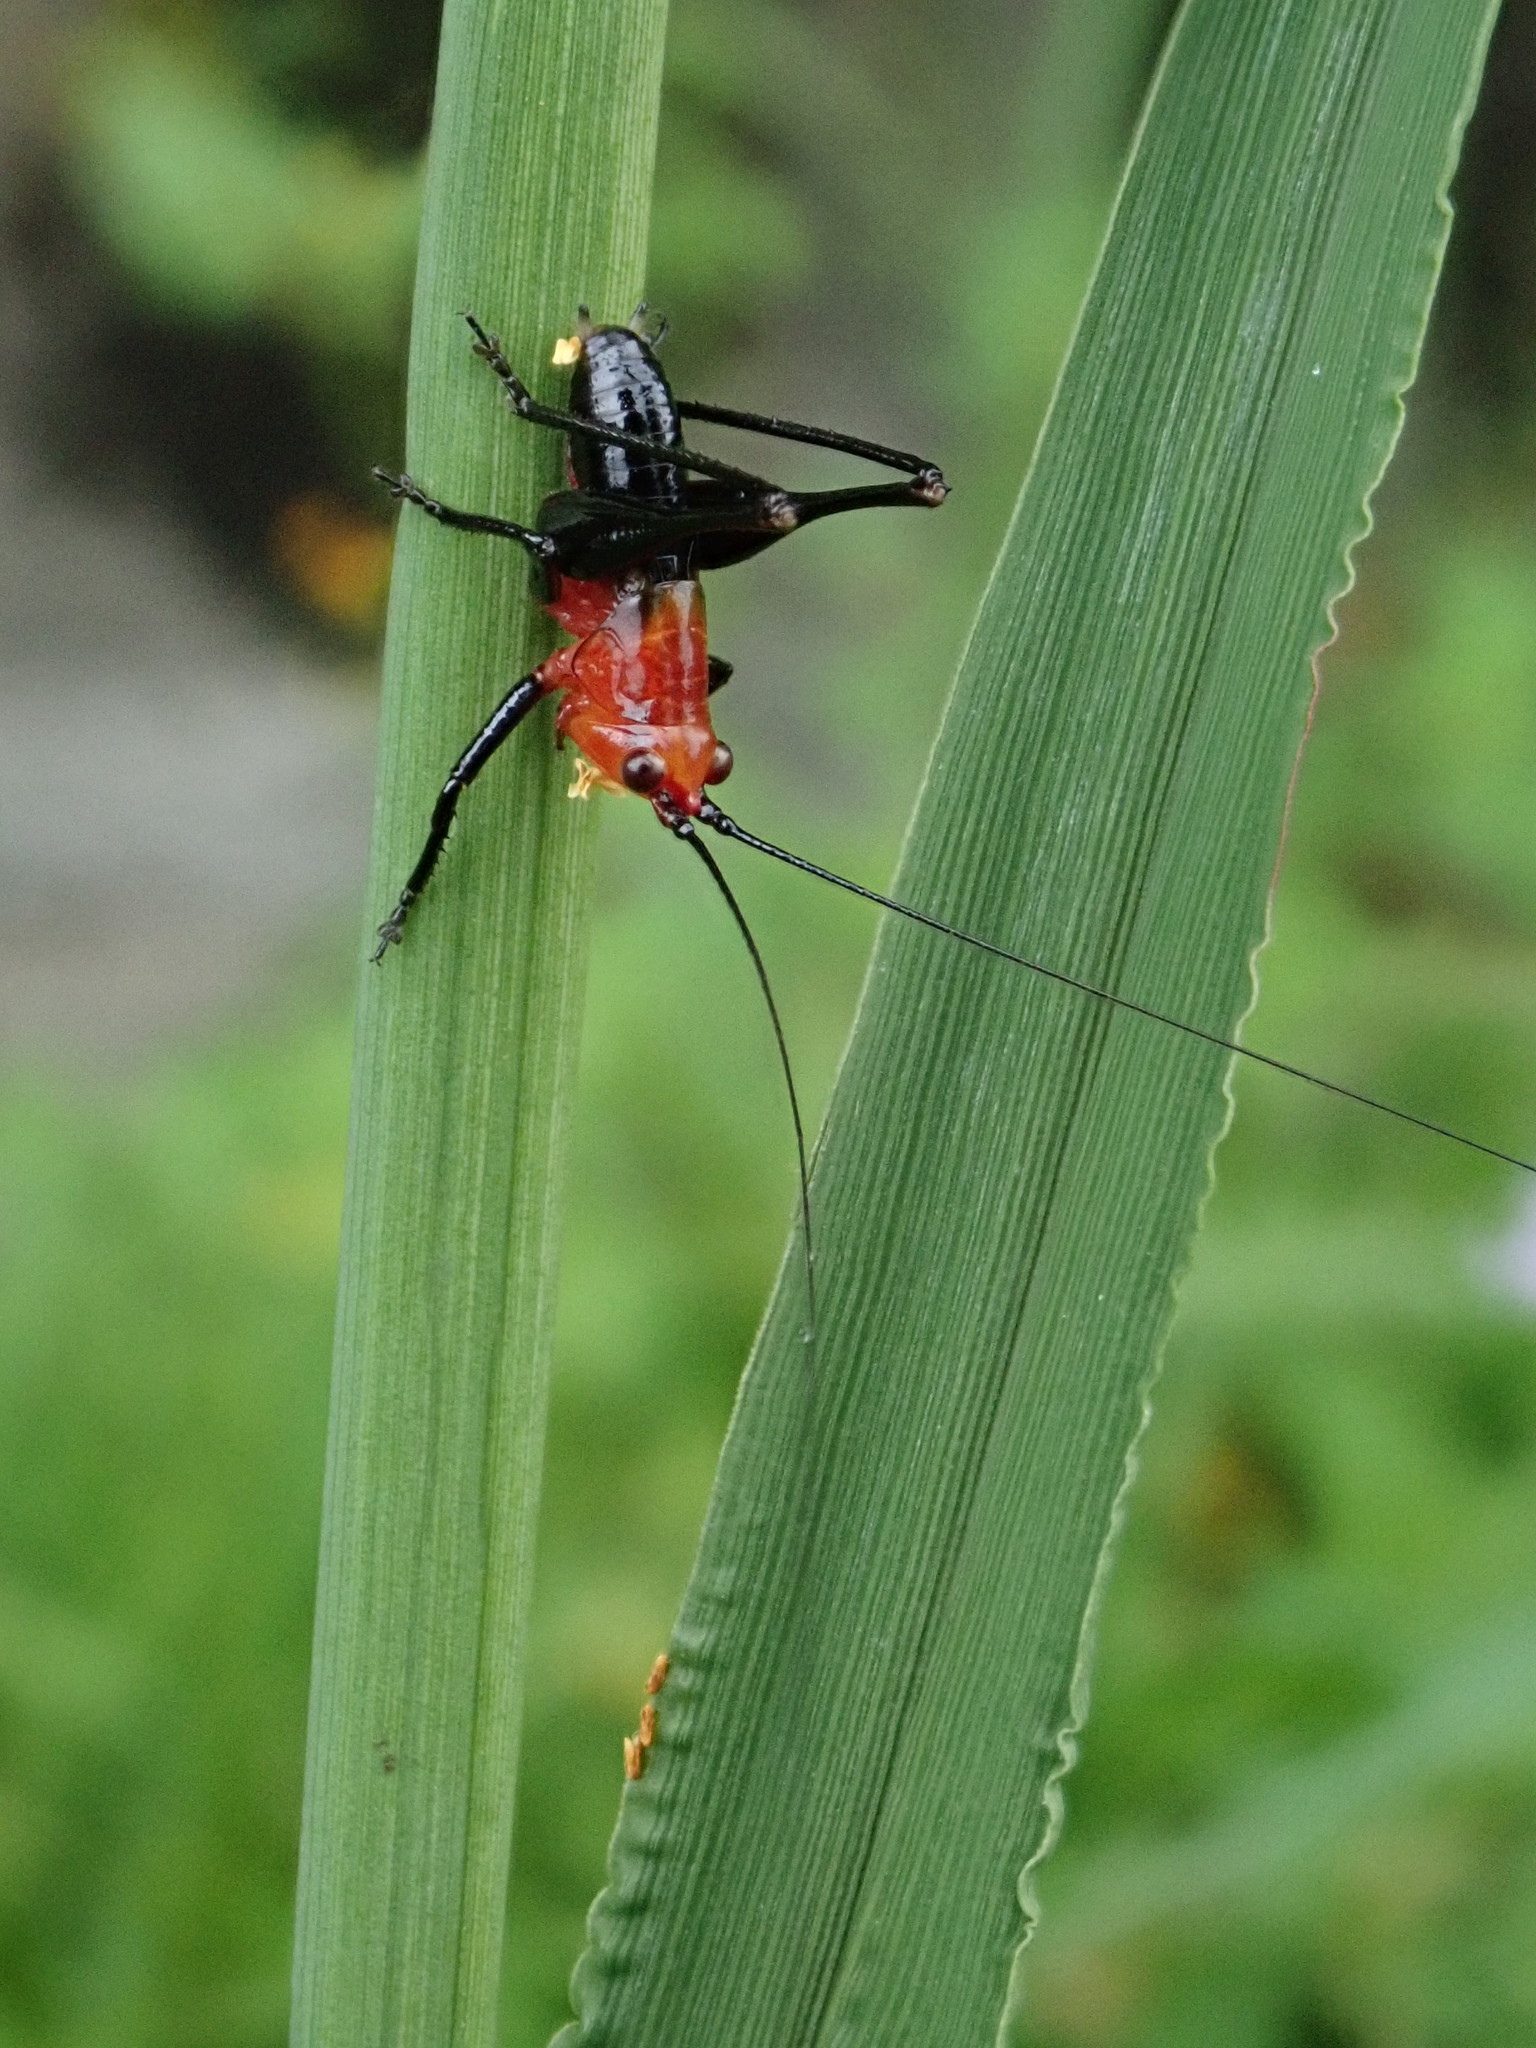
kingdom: Animalia
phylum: Arthropoda
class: Insecta
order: Orthoptera
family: Tettigoniidae
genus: Conocephalus
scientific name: Conocephalus melaenus
